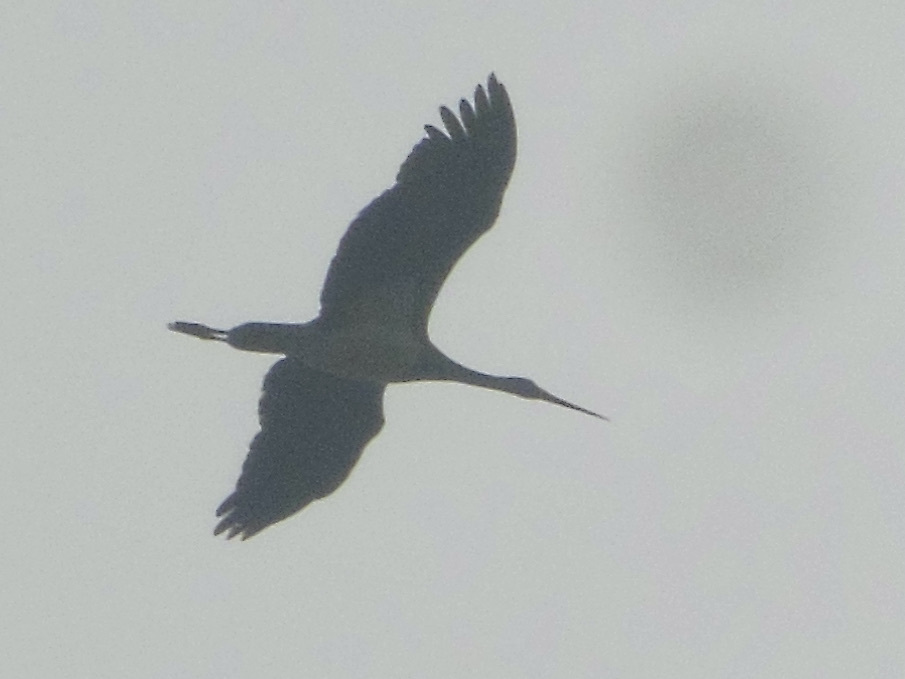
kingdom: Animalia
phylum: Chordata
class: Aves
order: Ciconiiformes
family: Ciconiidae
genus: Ciconia
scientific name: Ciconia nigra
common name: Black stork
